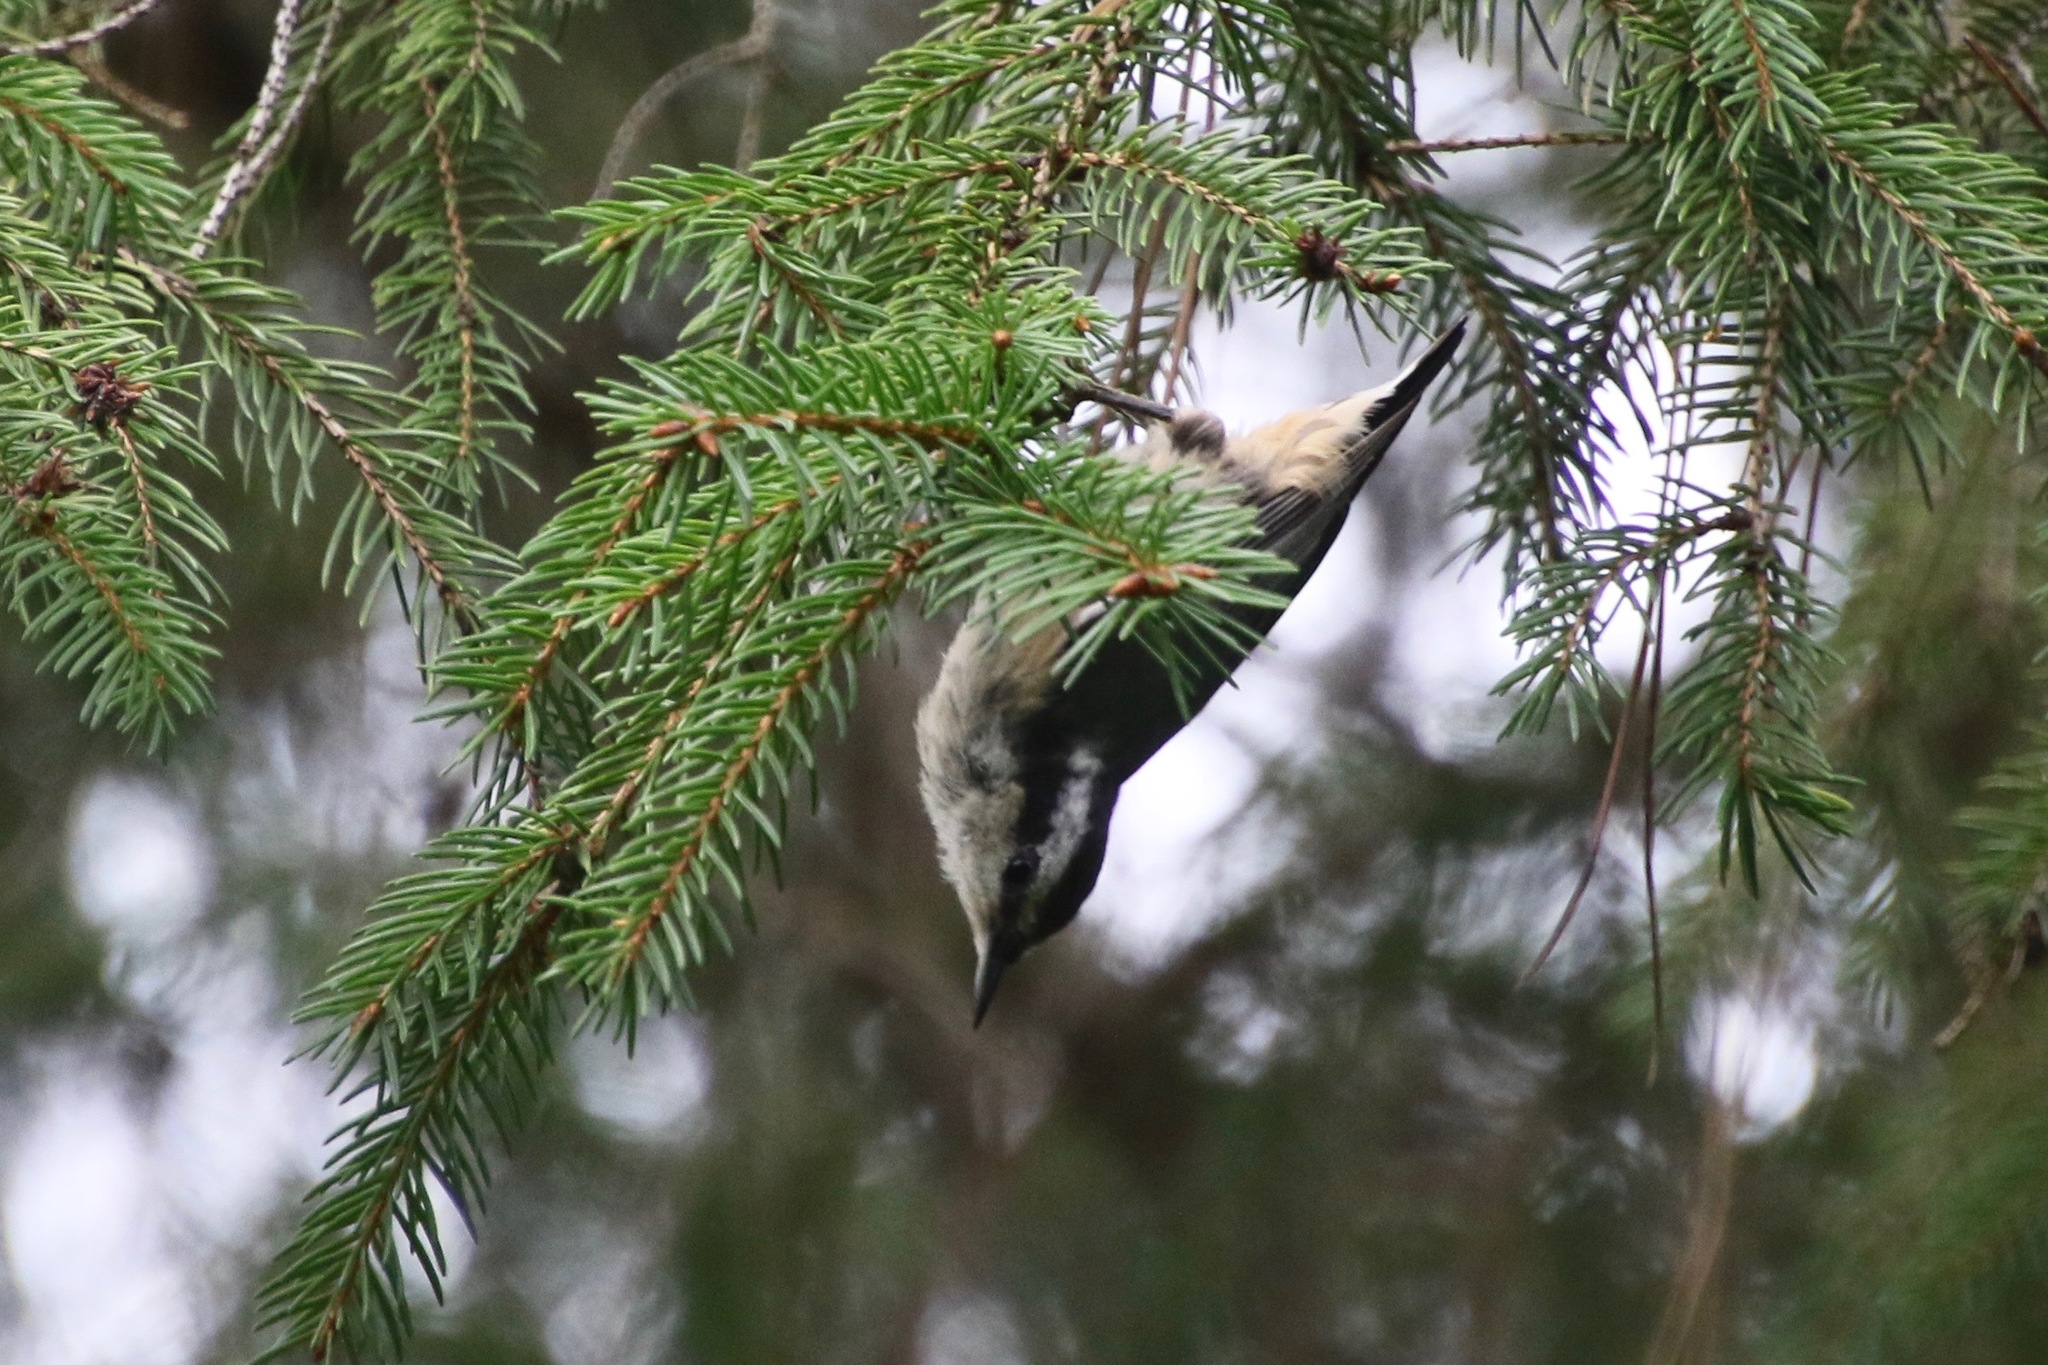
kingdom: Animalia
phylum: Chordata
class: Aves
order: Passeriformes
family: Sittidae
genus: Sitta
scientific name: Sitta canadensis
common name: Red-breasted nuthatch
